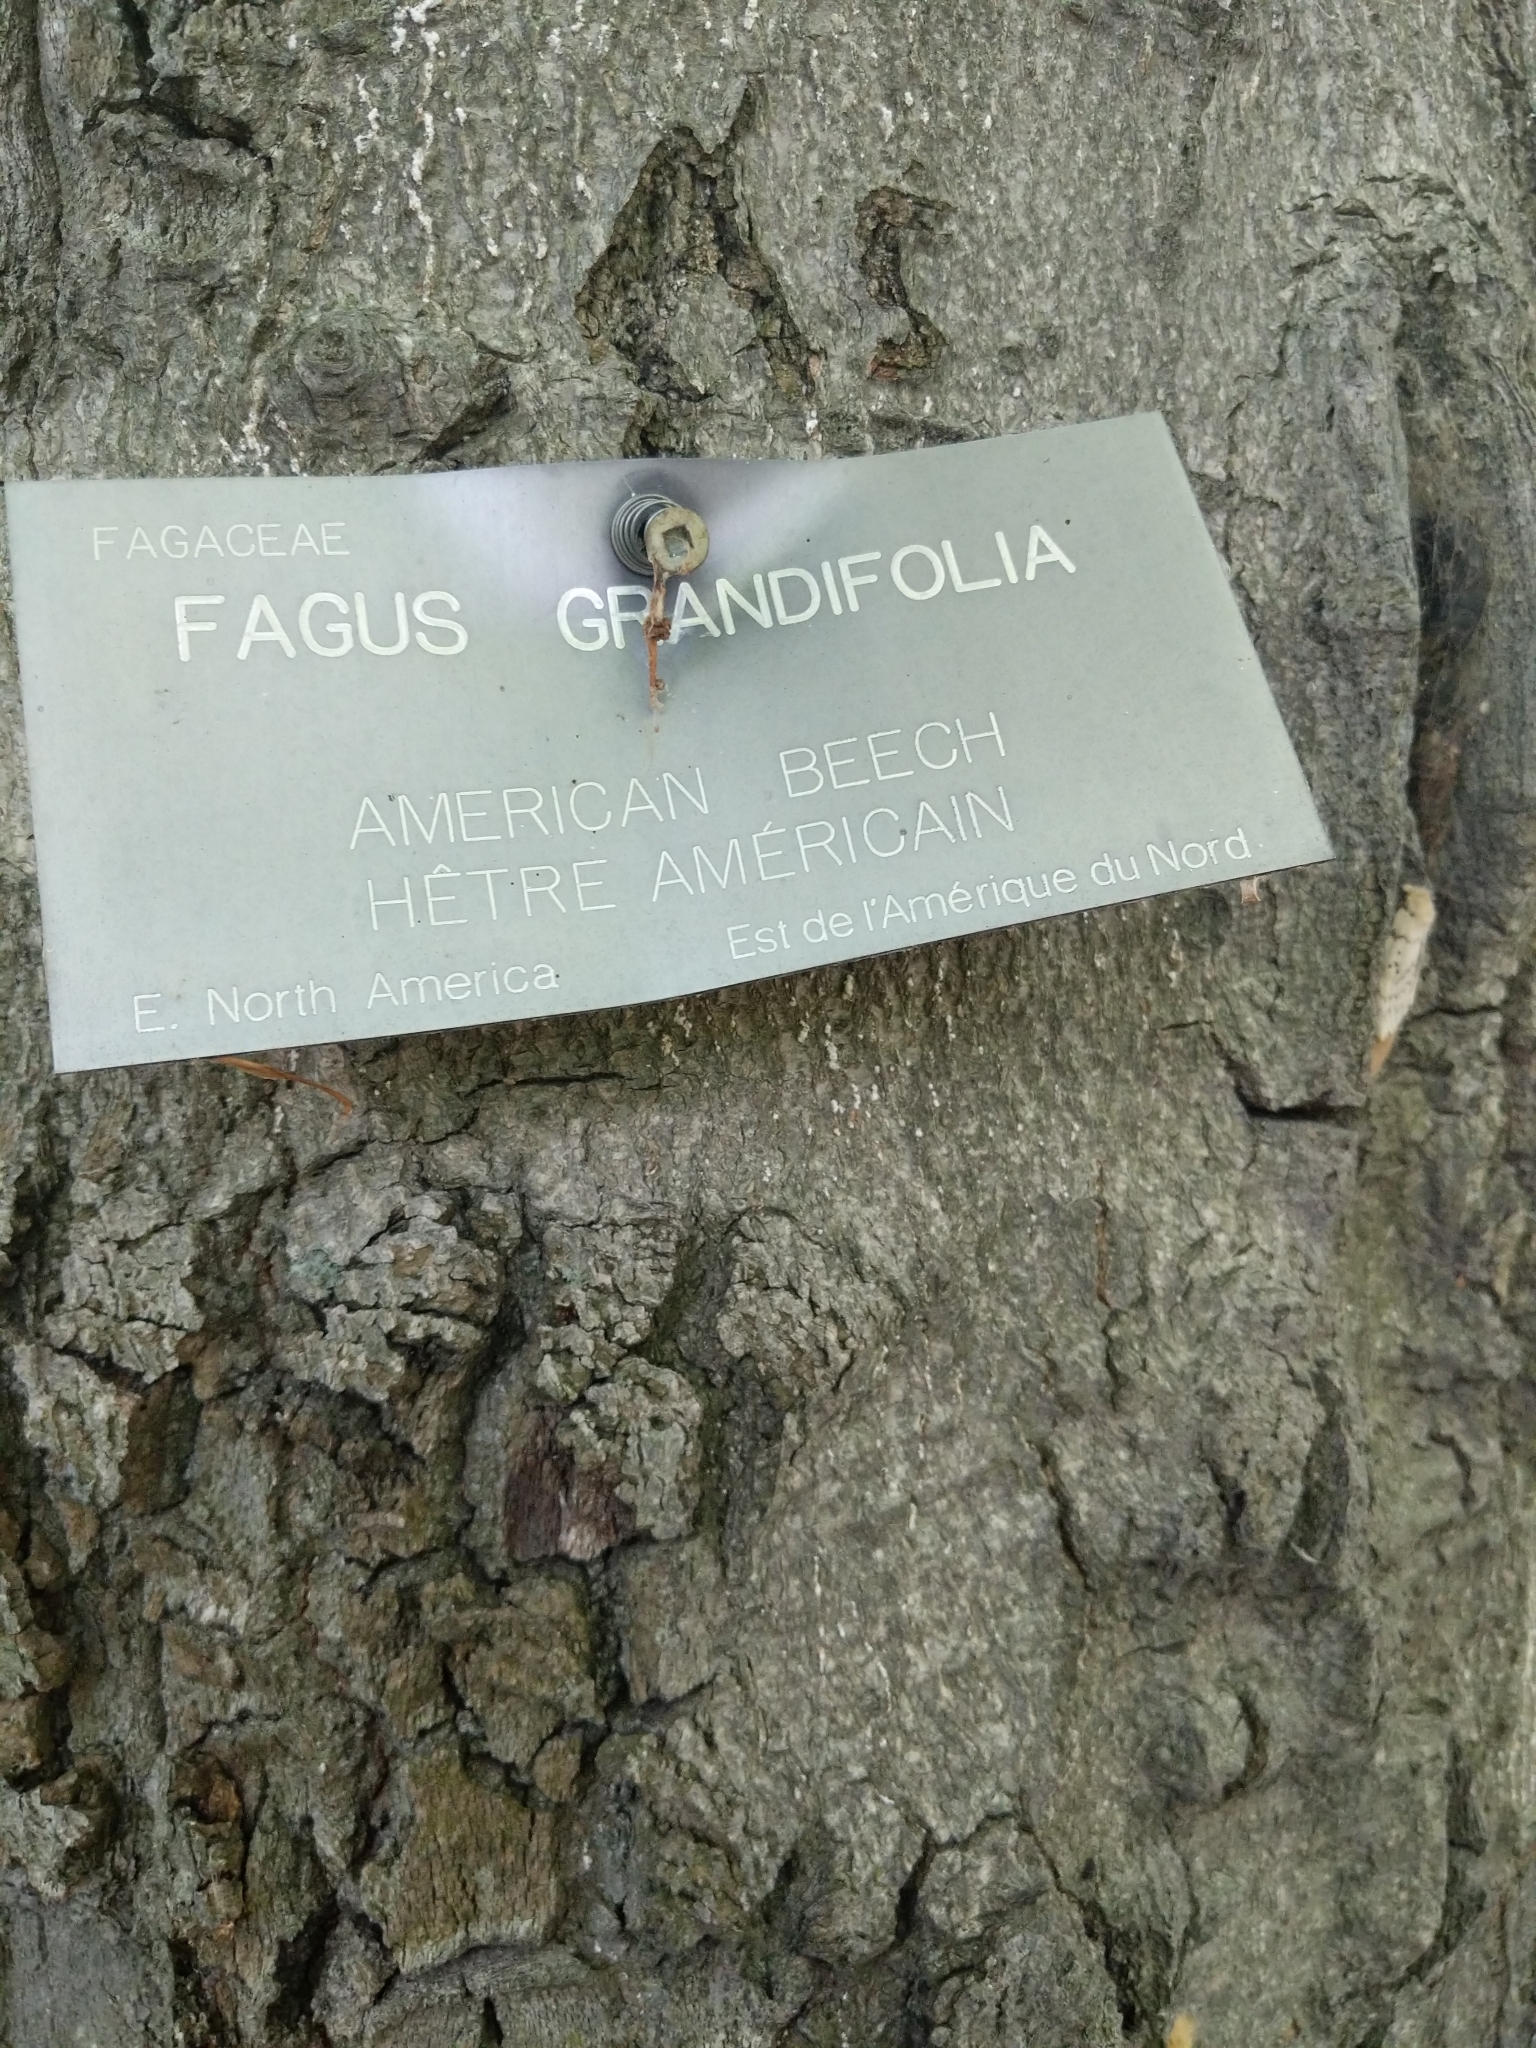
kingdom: Animalia
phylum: Arthropoda
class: Insecta
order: Lepidoptera
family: Erebidae
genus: Lymantria
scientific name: Lymantria dispar
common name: Gypsy moth
